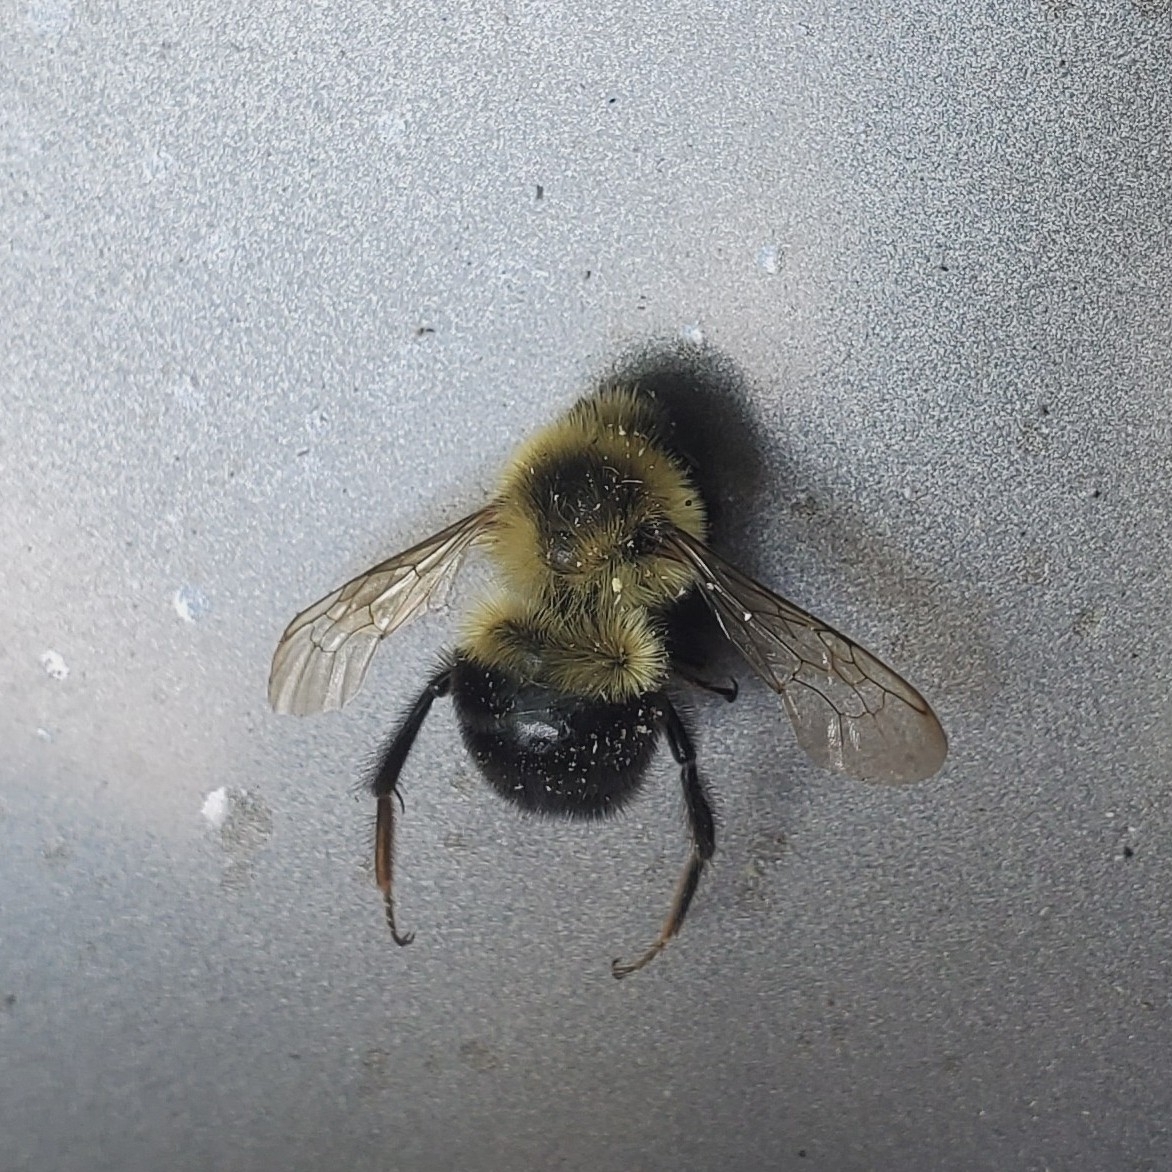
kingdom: Animalia
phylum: Arthropoda
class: Insecta
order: Hymenoptera
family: Apidae
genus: Bombus
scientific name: Bombus impatiens
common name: Common eastern bumble bee
